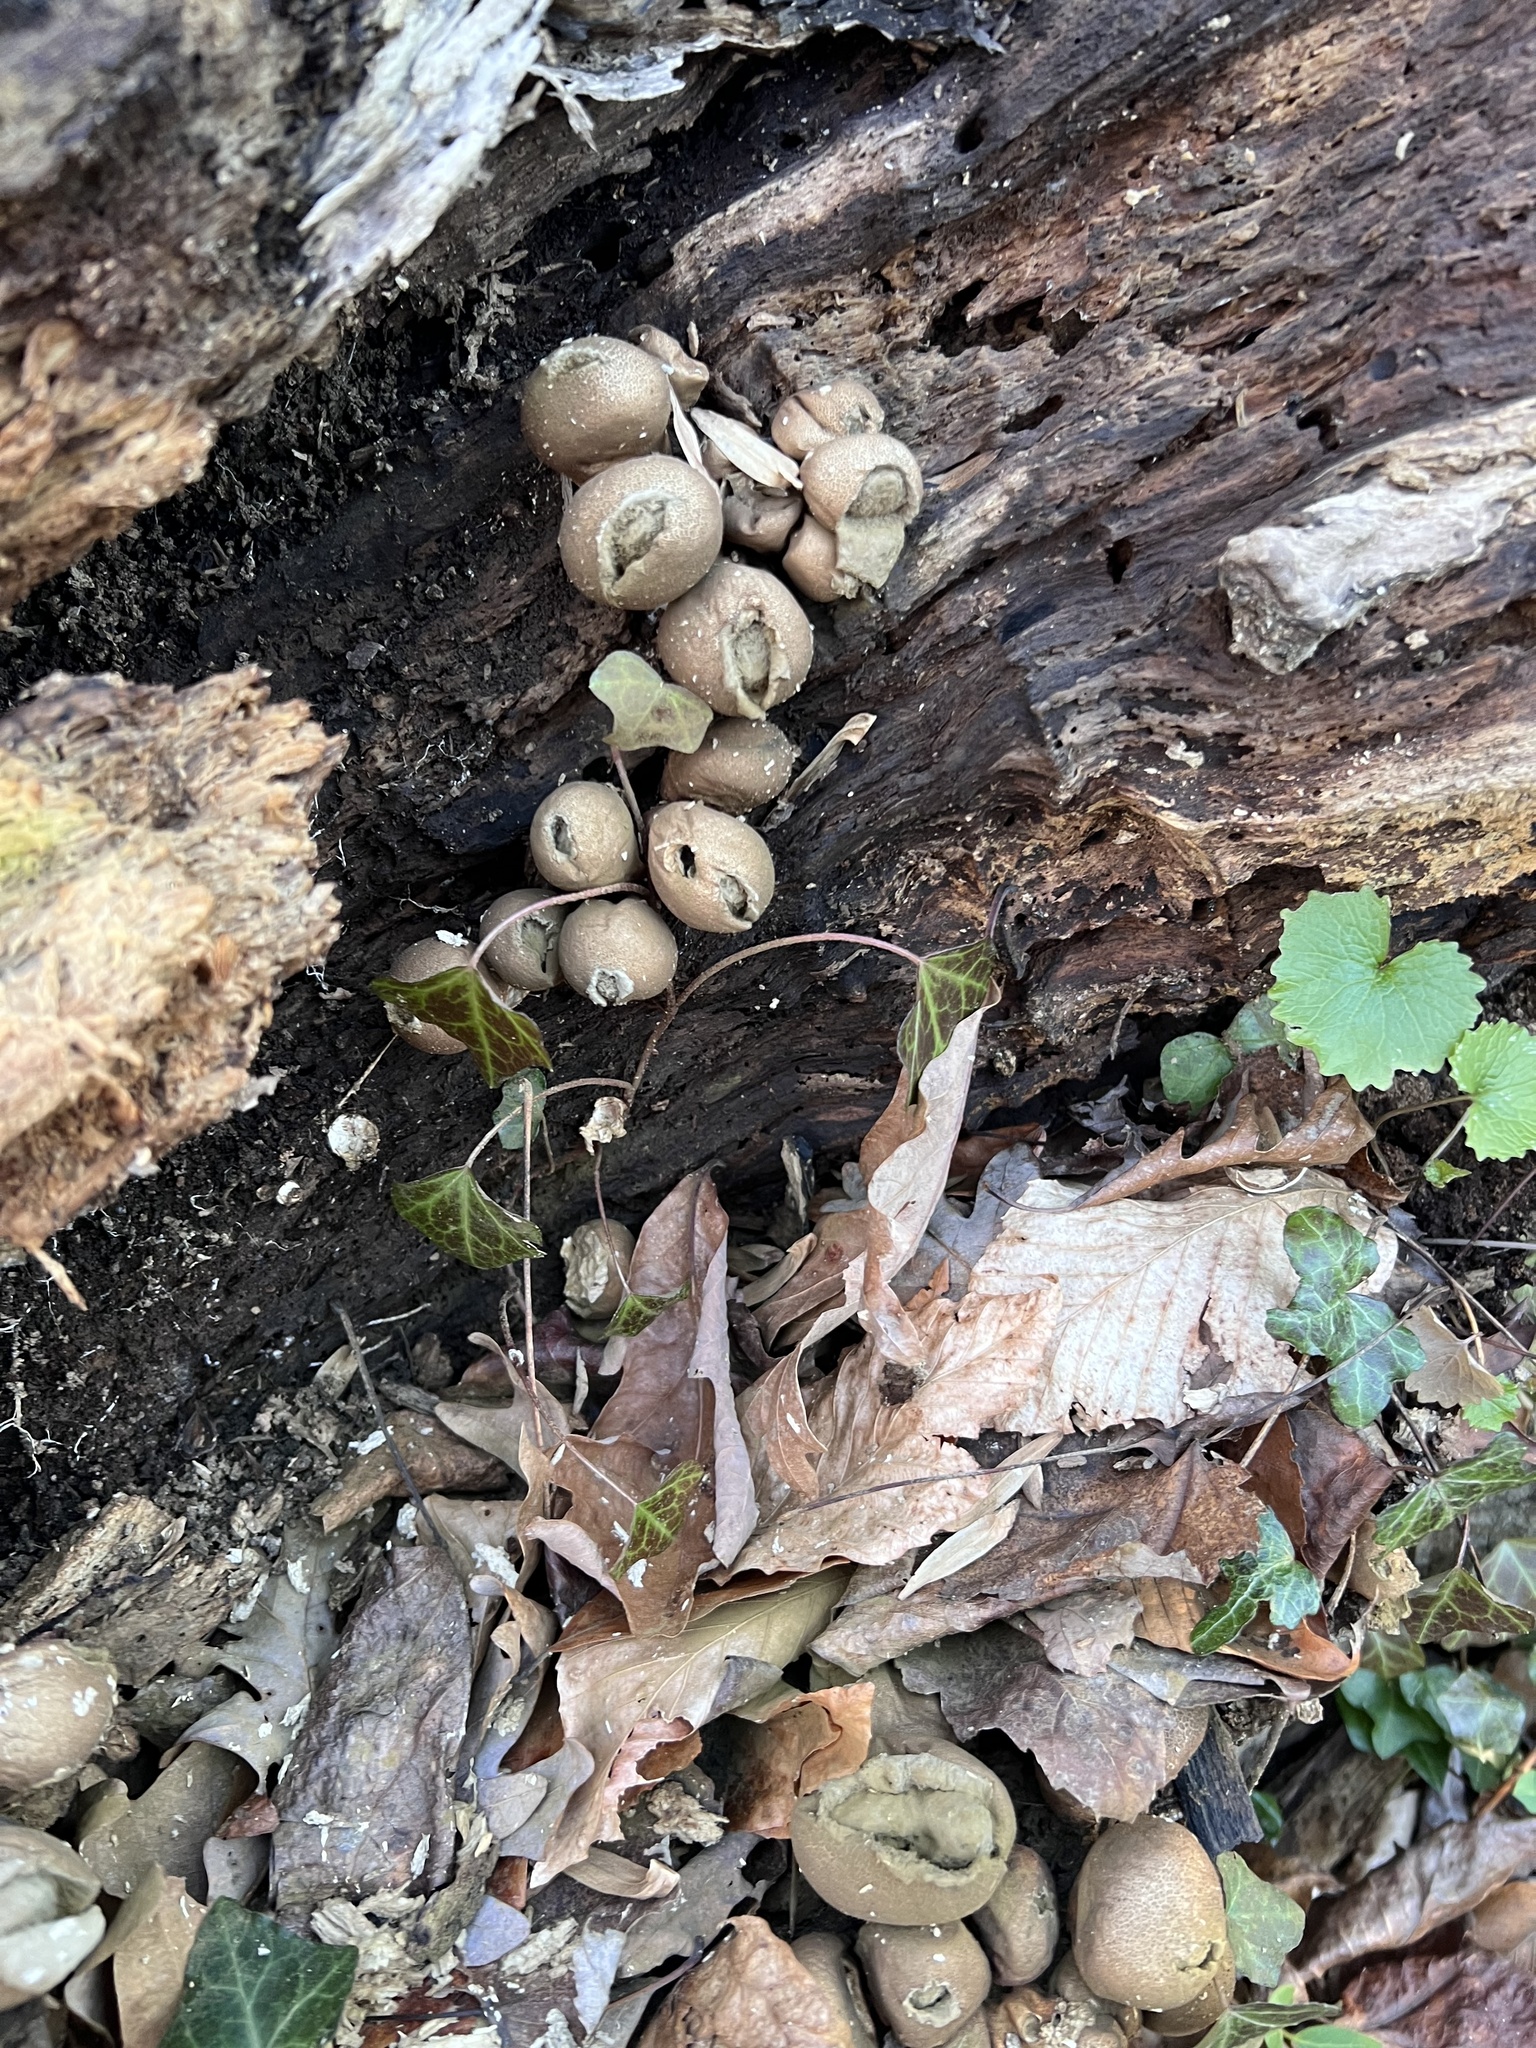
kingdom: Fungi
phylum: Basidiomycota
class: Agaricomycetes
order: Agaricales
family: Lycoperdaceae
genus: Apioperdon
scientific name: Apioperdon pyriforme
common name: Pear-shaped puffball
